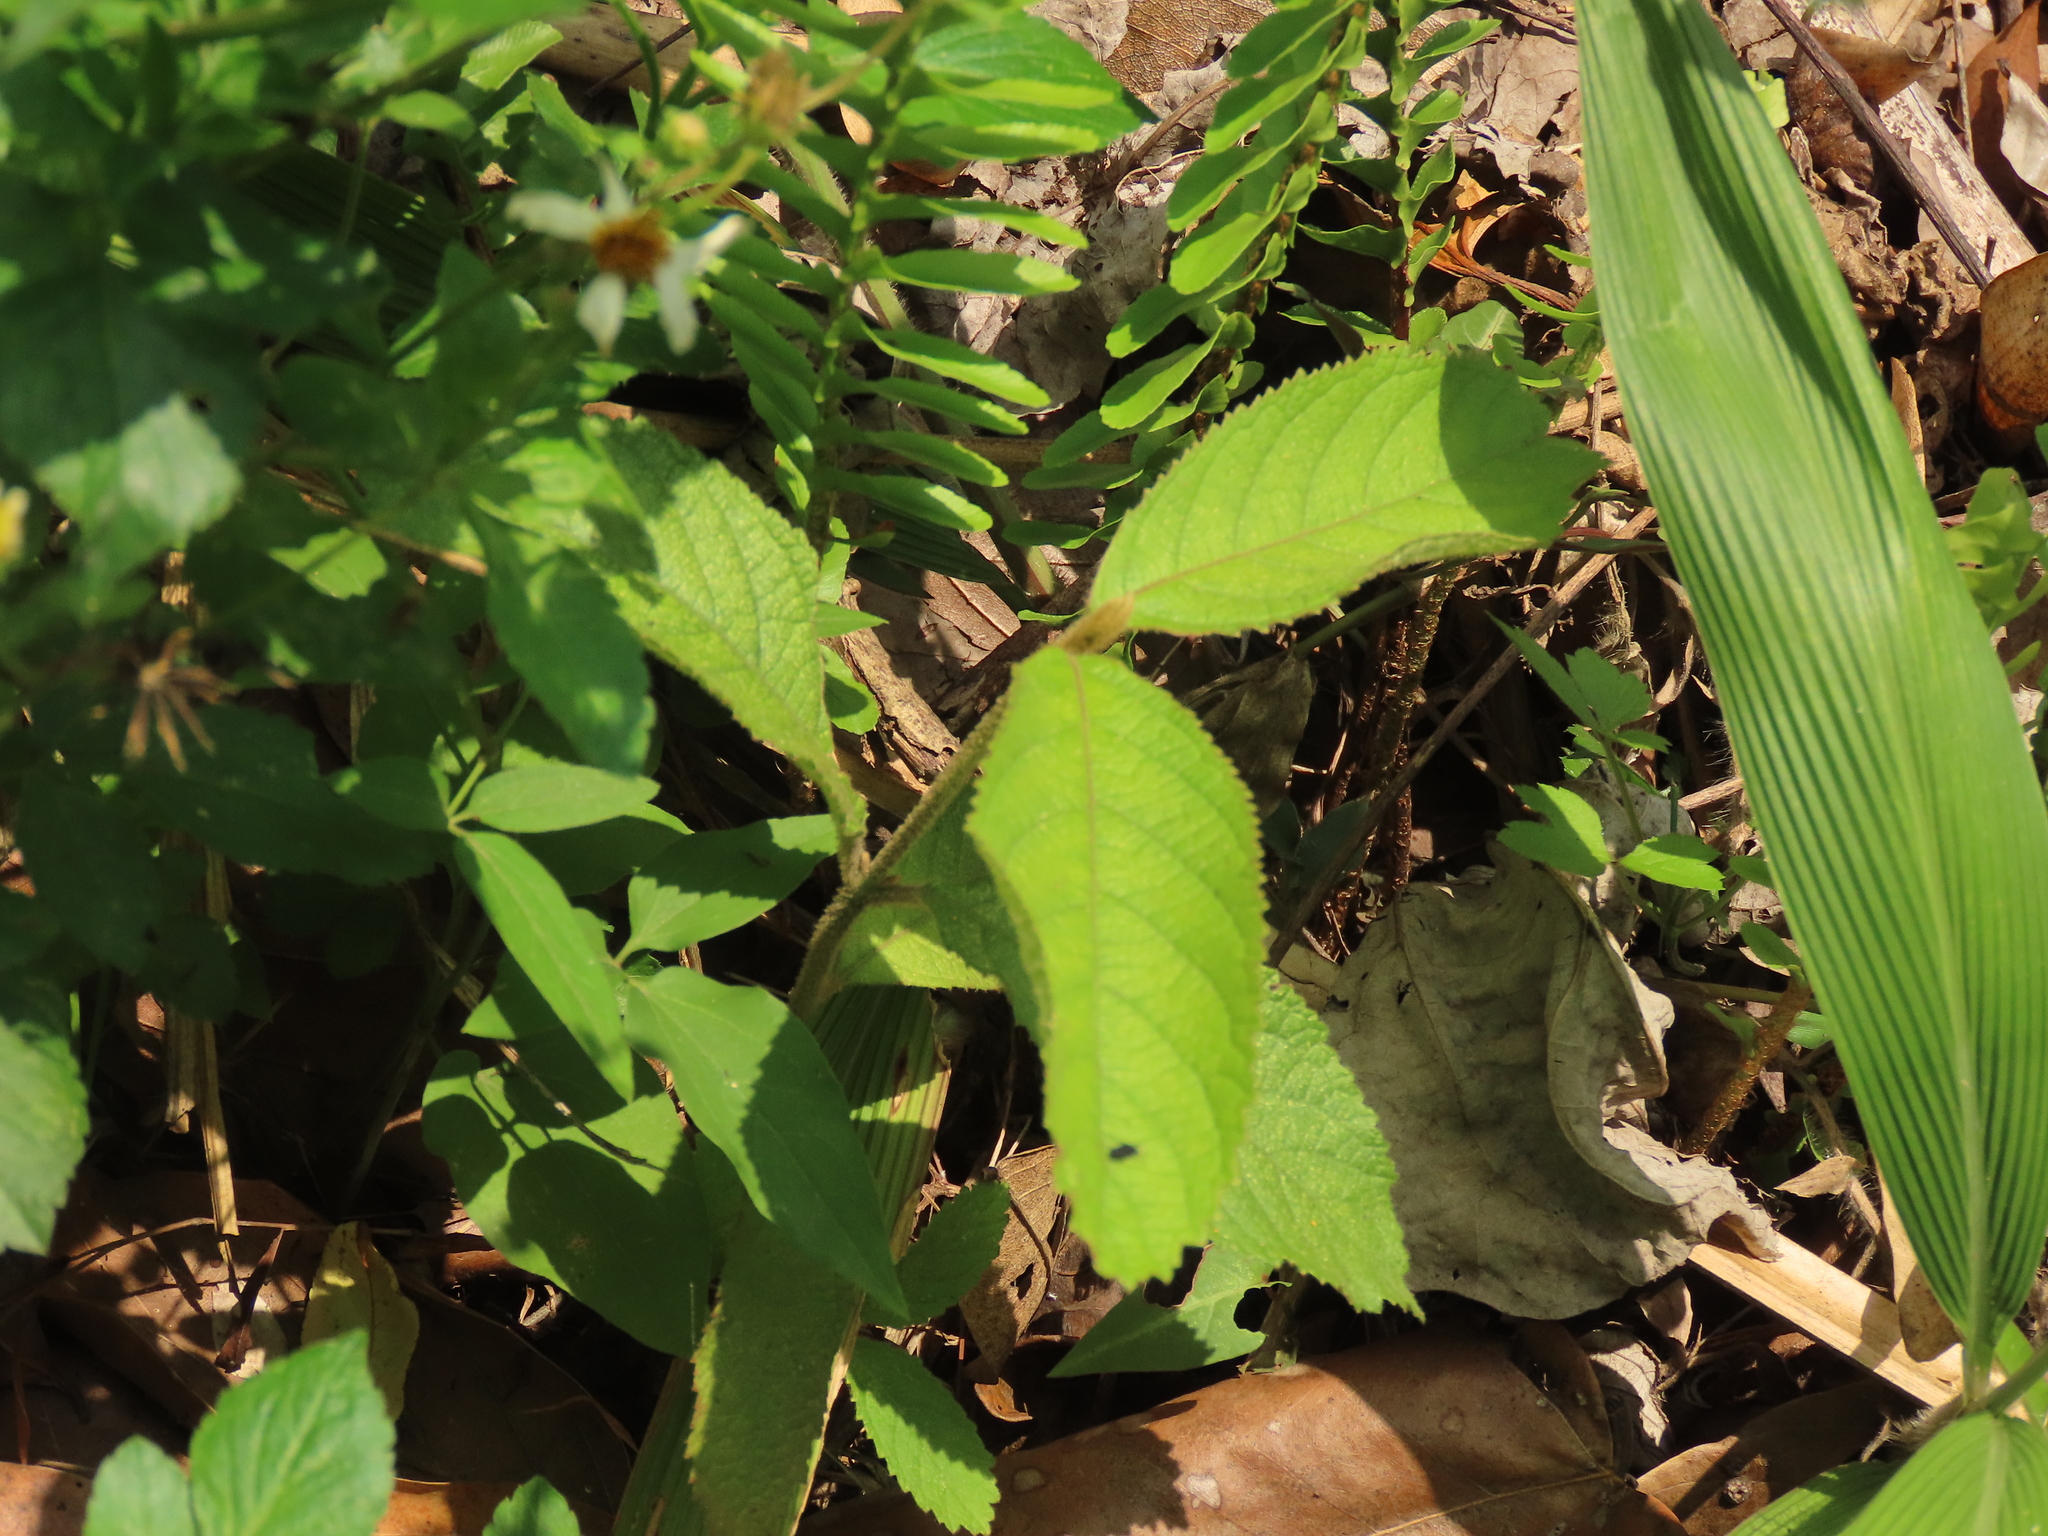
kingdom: Plantae
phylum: Tracheophyta
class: Magnoliopsida
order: Lamiales
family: Lamiaceae
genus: Callicarpa
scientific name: Callicarpa pedunculata
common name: Velvetleaf
